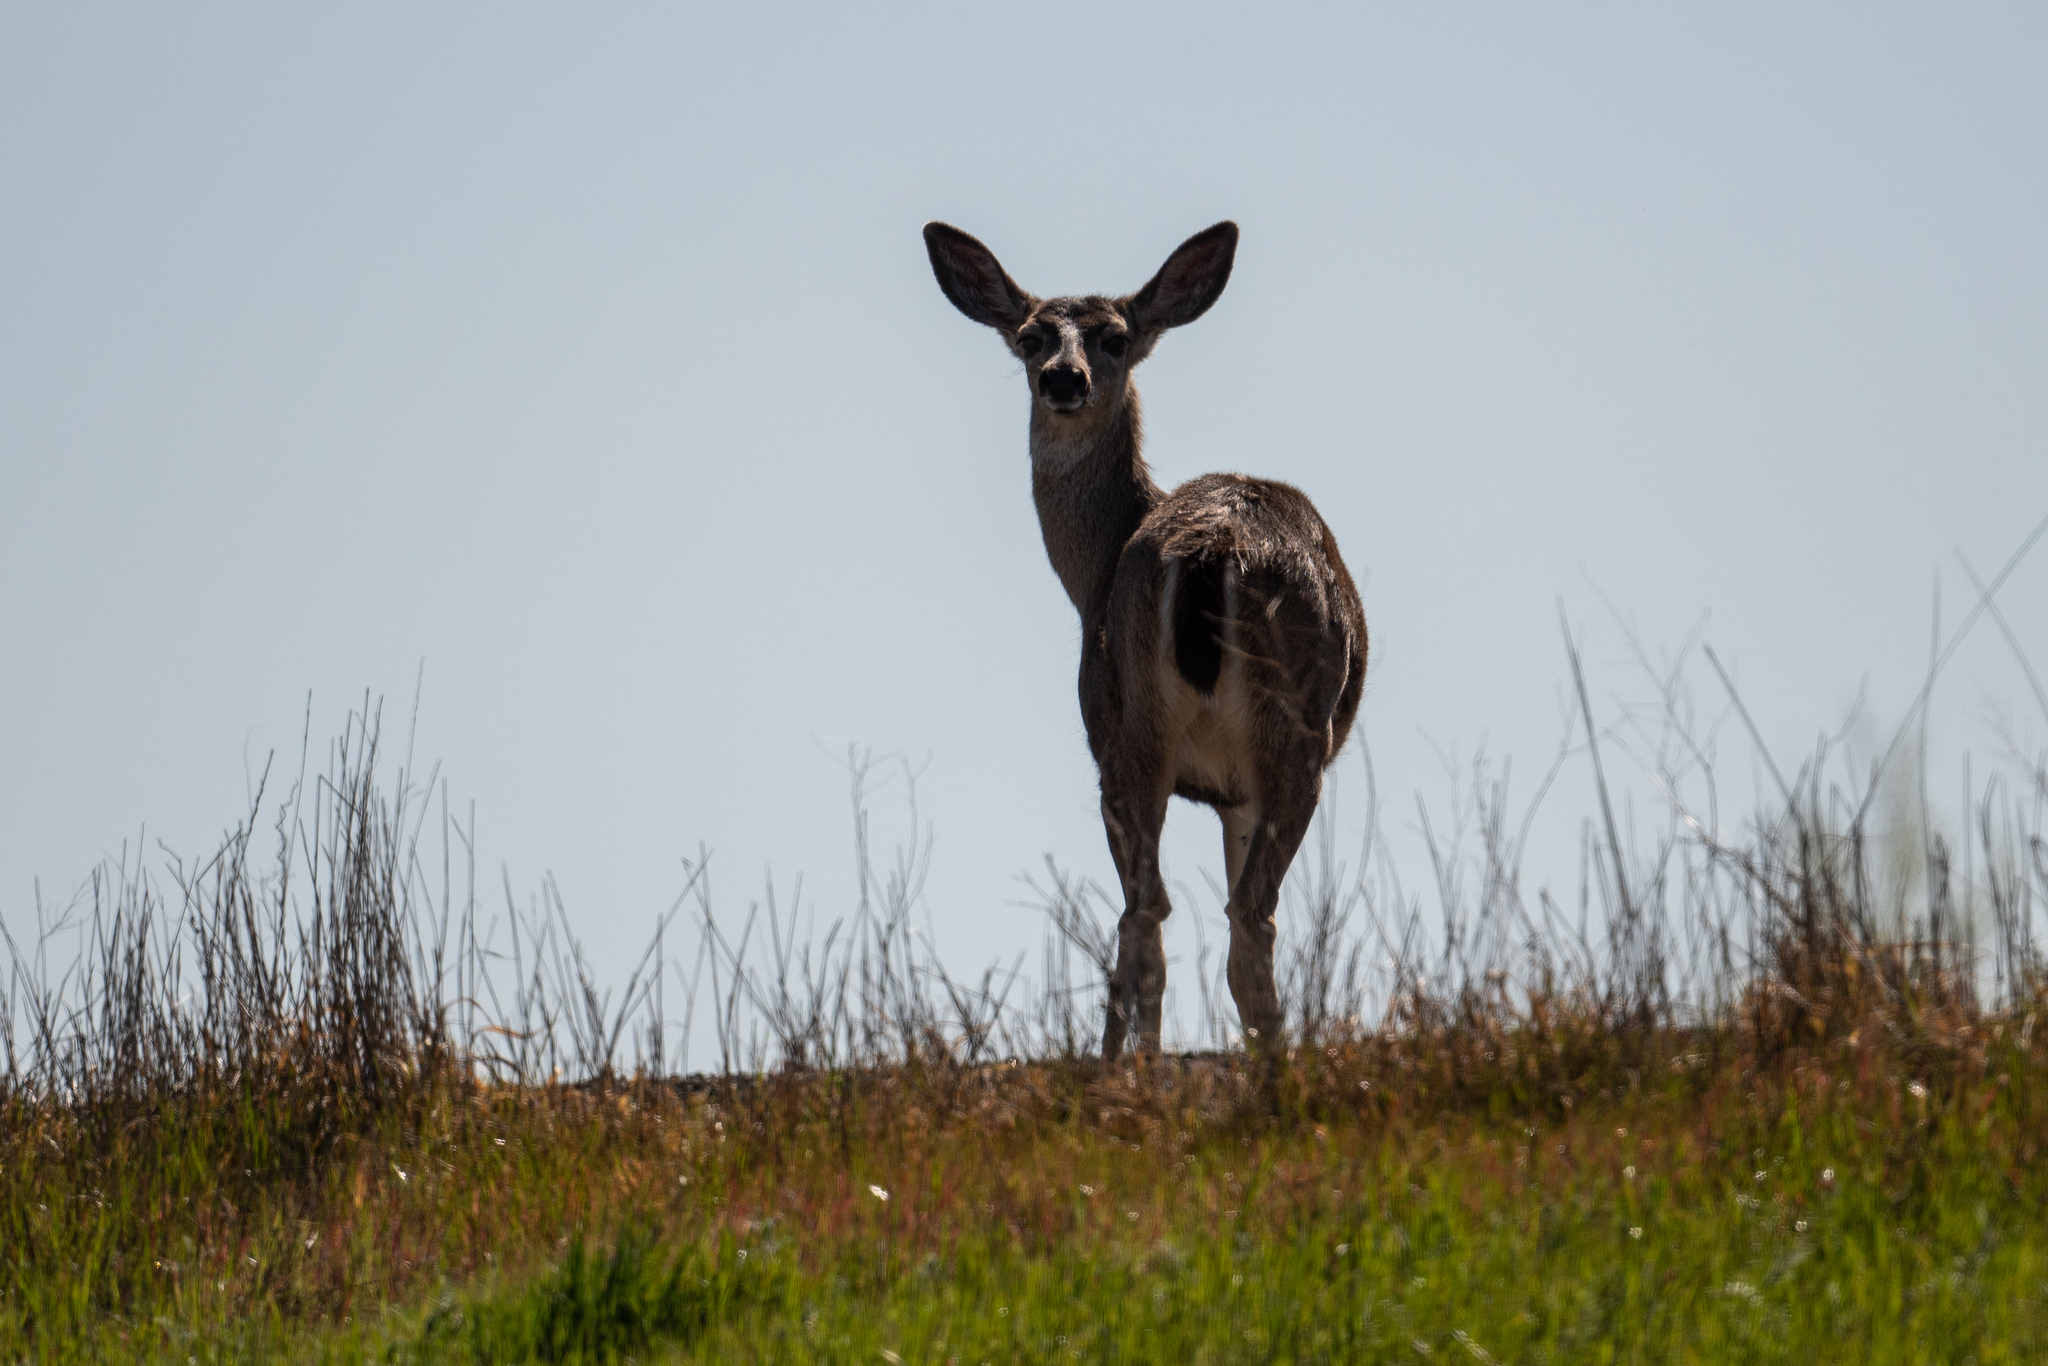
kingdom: Animalia
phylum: Chordata
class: Mammalia
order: Artiodactyla
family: Cervidae
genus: Odocoileus
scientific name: Odocoileus hemionus
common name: Mule deer
